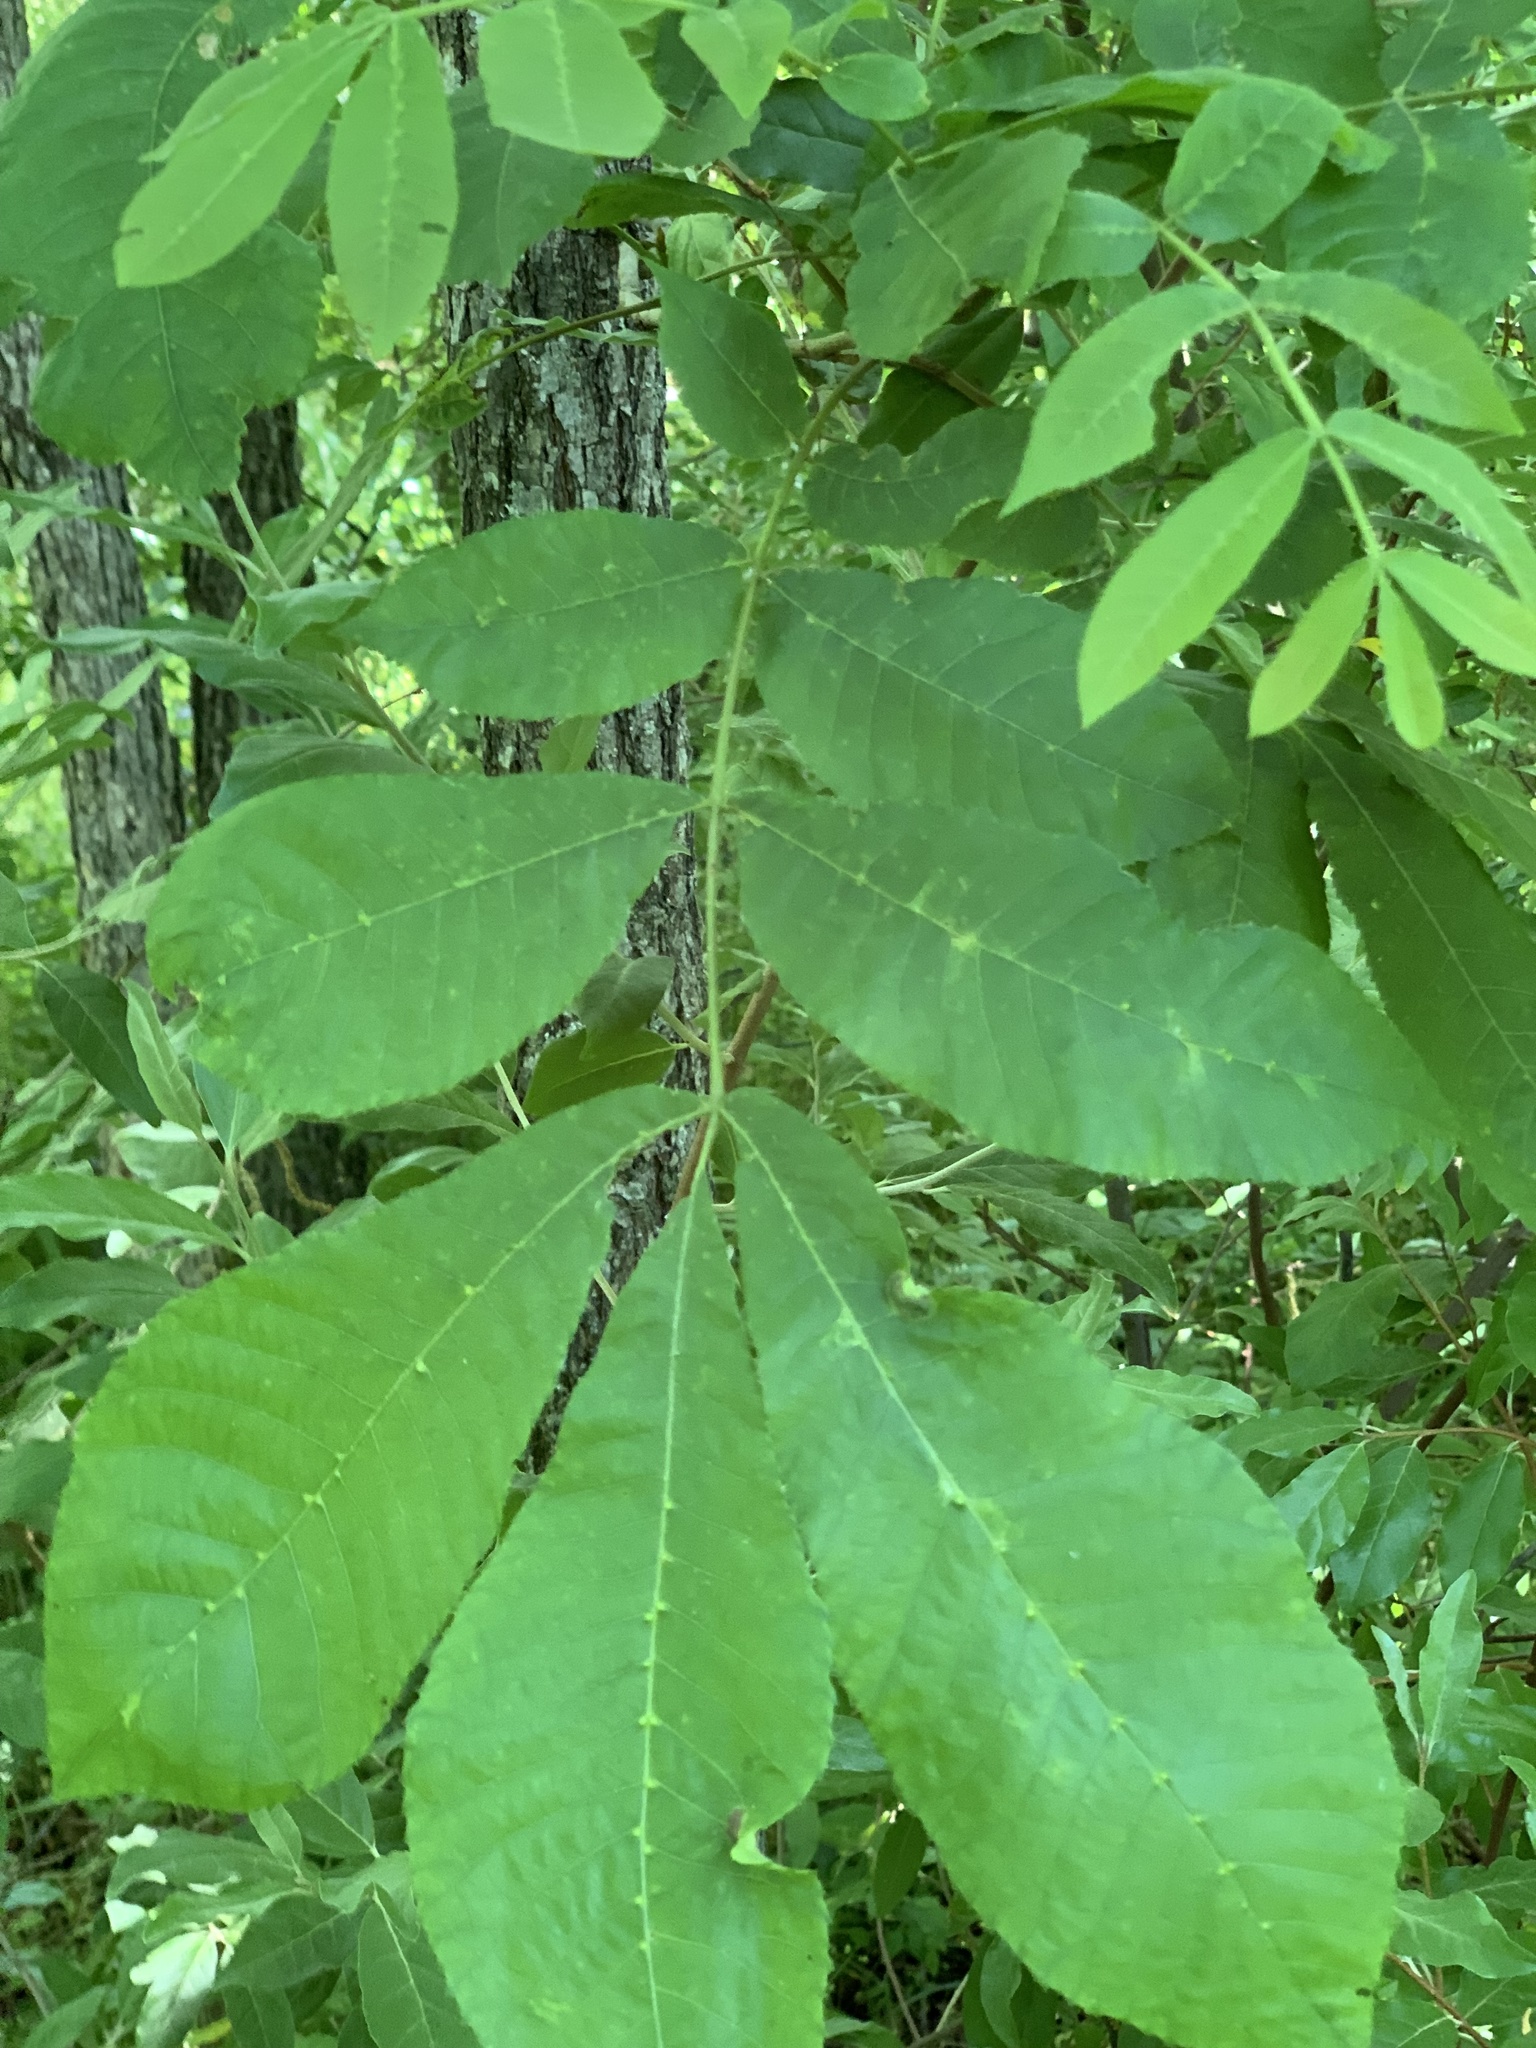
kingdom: Plantae
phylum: Tracheophyta
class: Magnoliopsida
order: Fagales
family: Juglandaceae
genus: Carya
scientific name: Carya cordiformis
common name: Bitternut hickory
